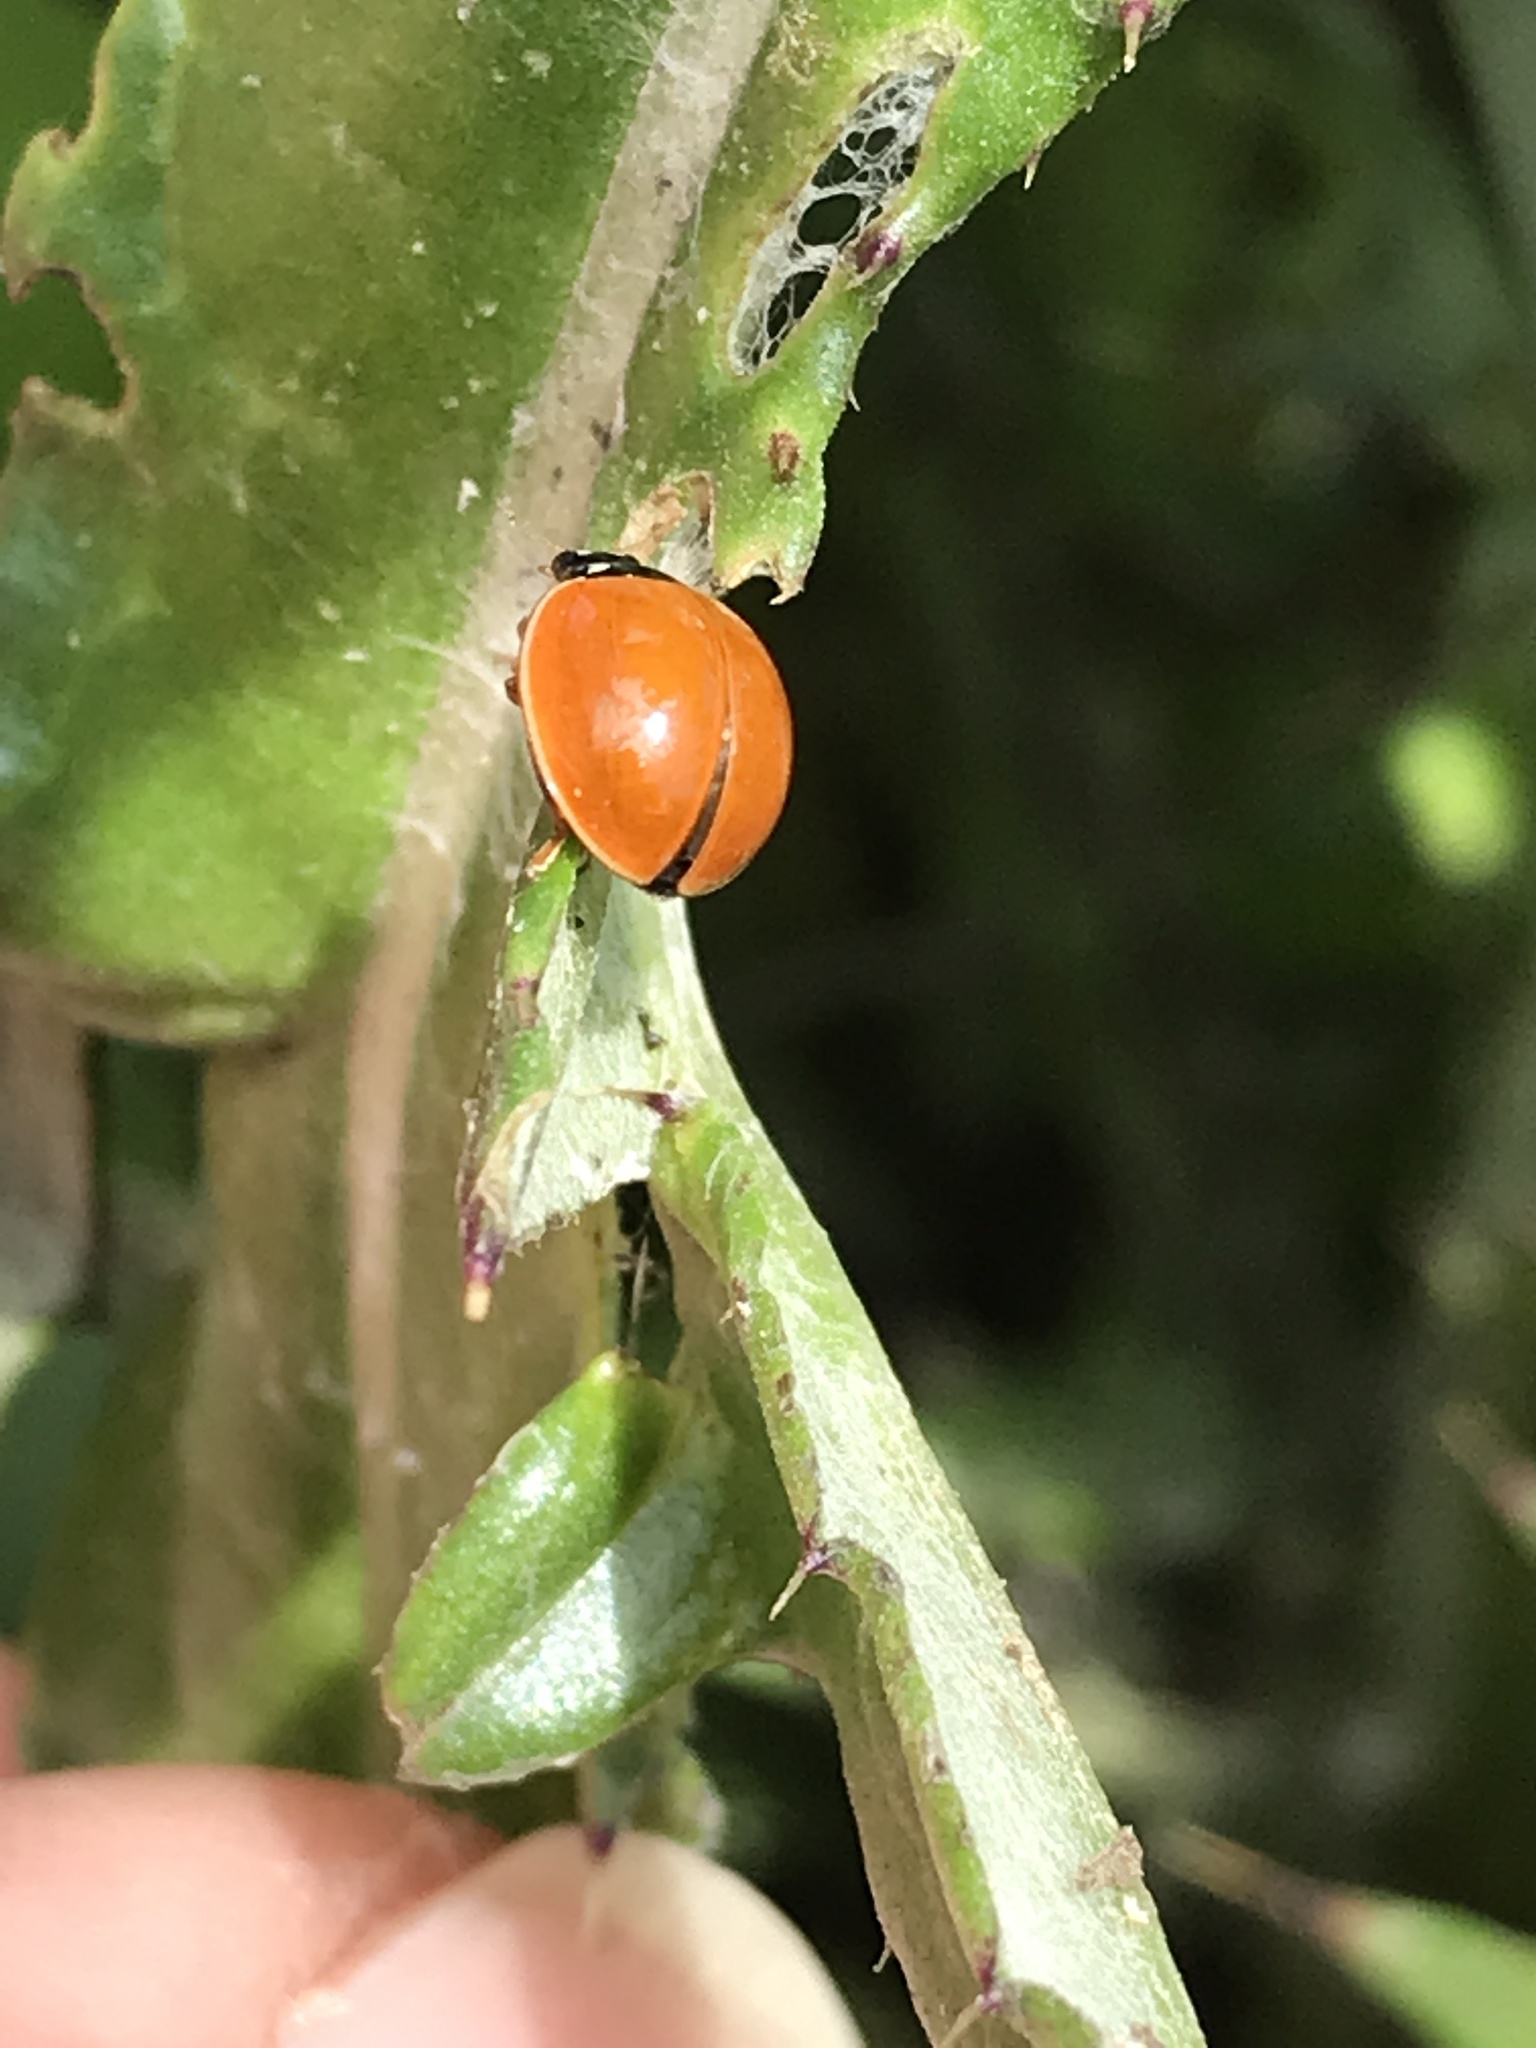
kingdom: Animalia
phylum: Arthropoda
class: Insecta
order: Coleoptera
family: Coccinellidae
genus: Cycloneda
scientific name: Cycloneda munda
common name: Polished lady beetle
